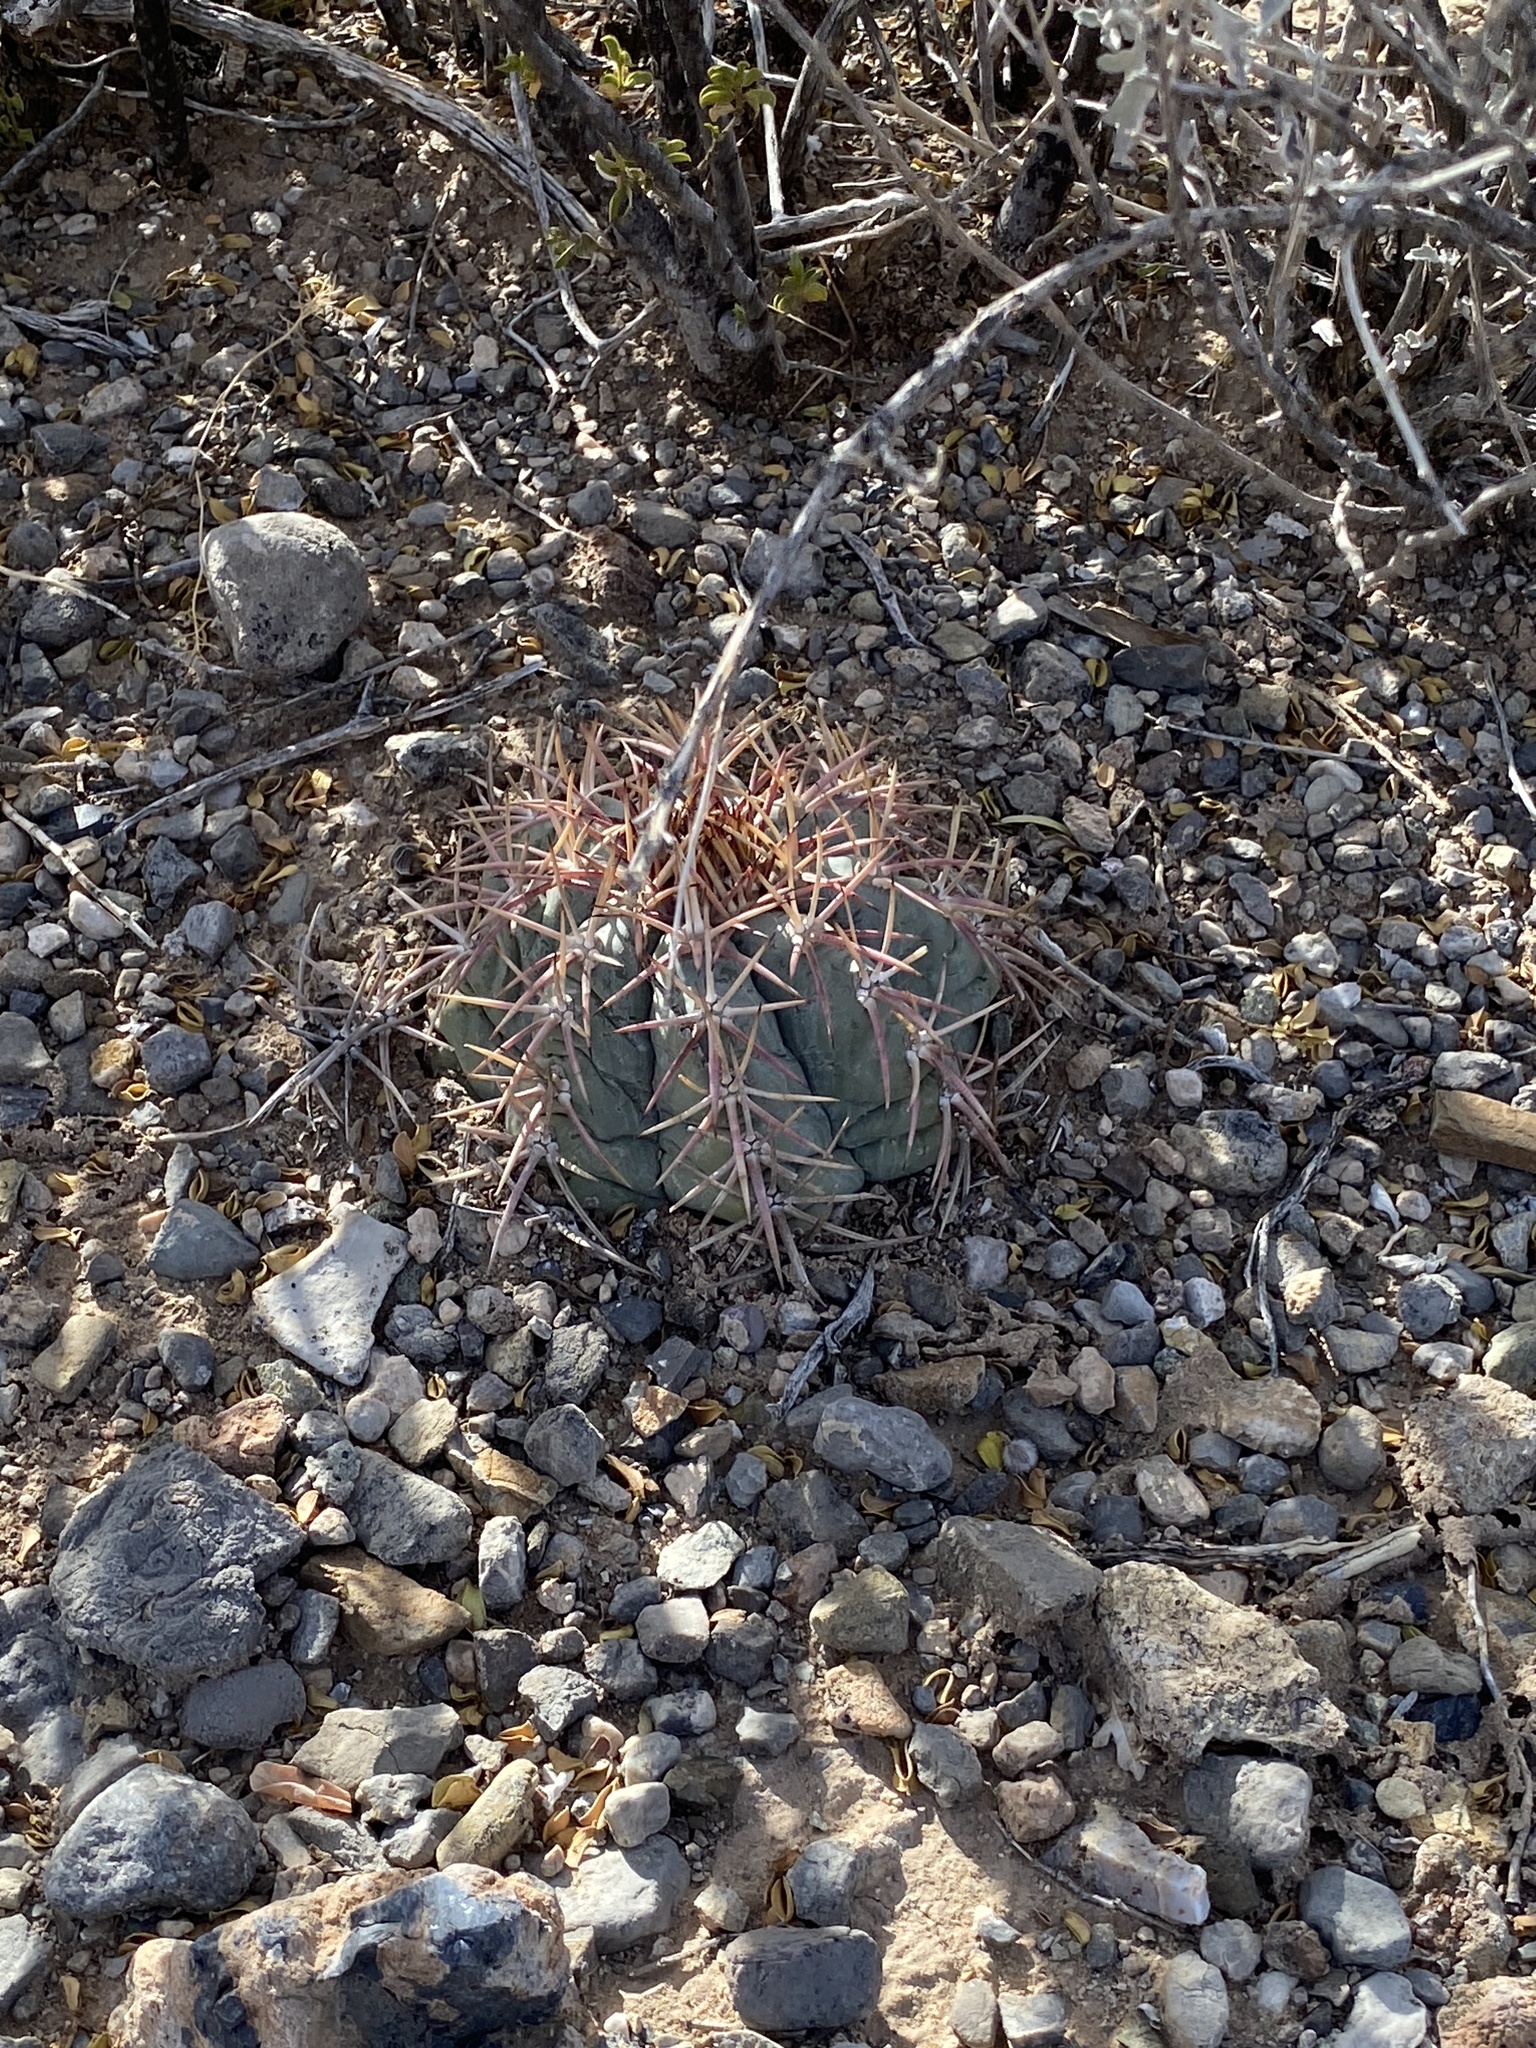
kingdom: Plantae
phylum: Tracheophyta
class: Magnoliopsida
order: Caryophyllales
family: Cactaceae
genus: Echinocactus
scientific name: Echinocactus horizonthalonius
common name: Devilshead
